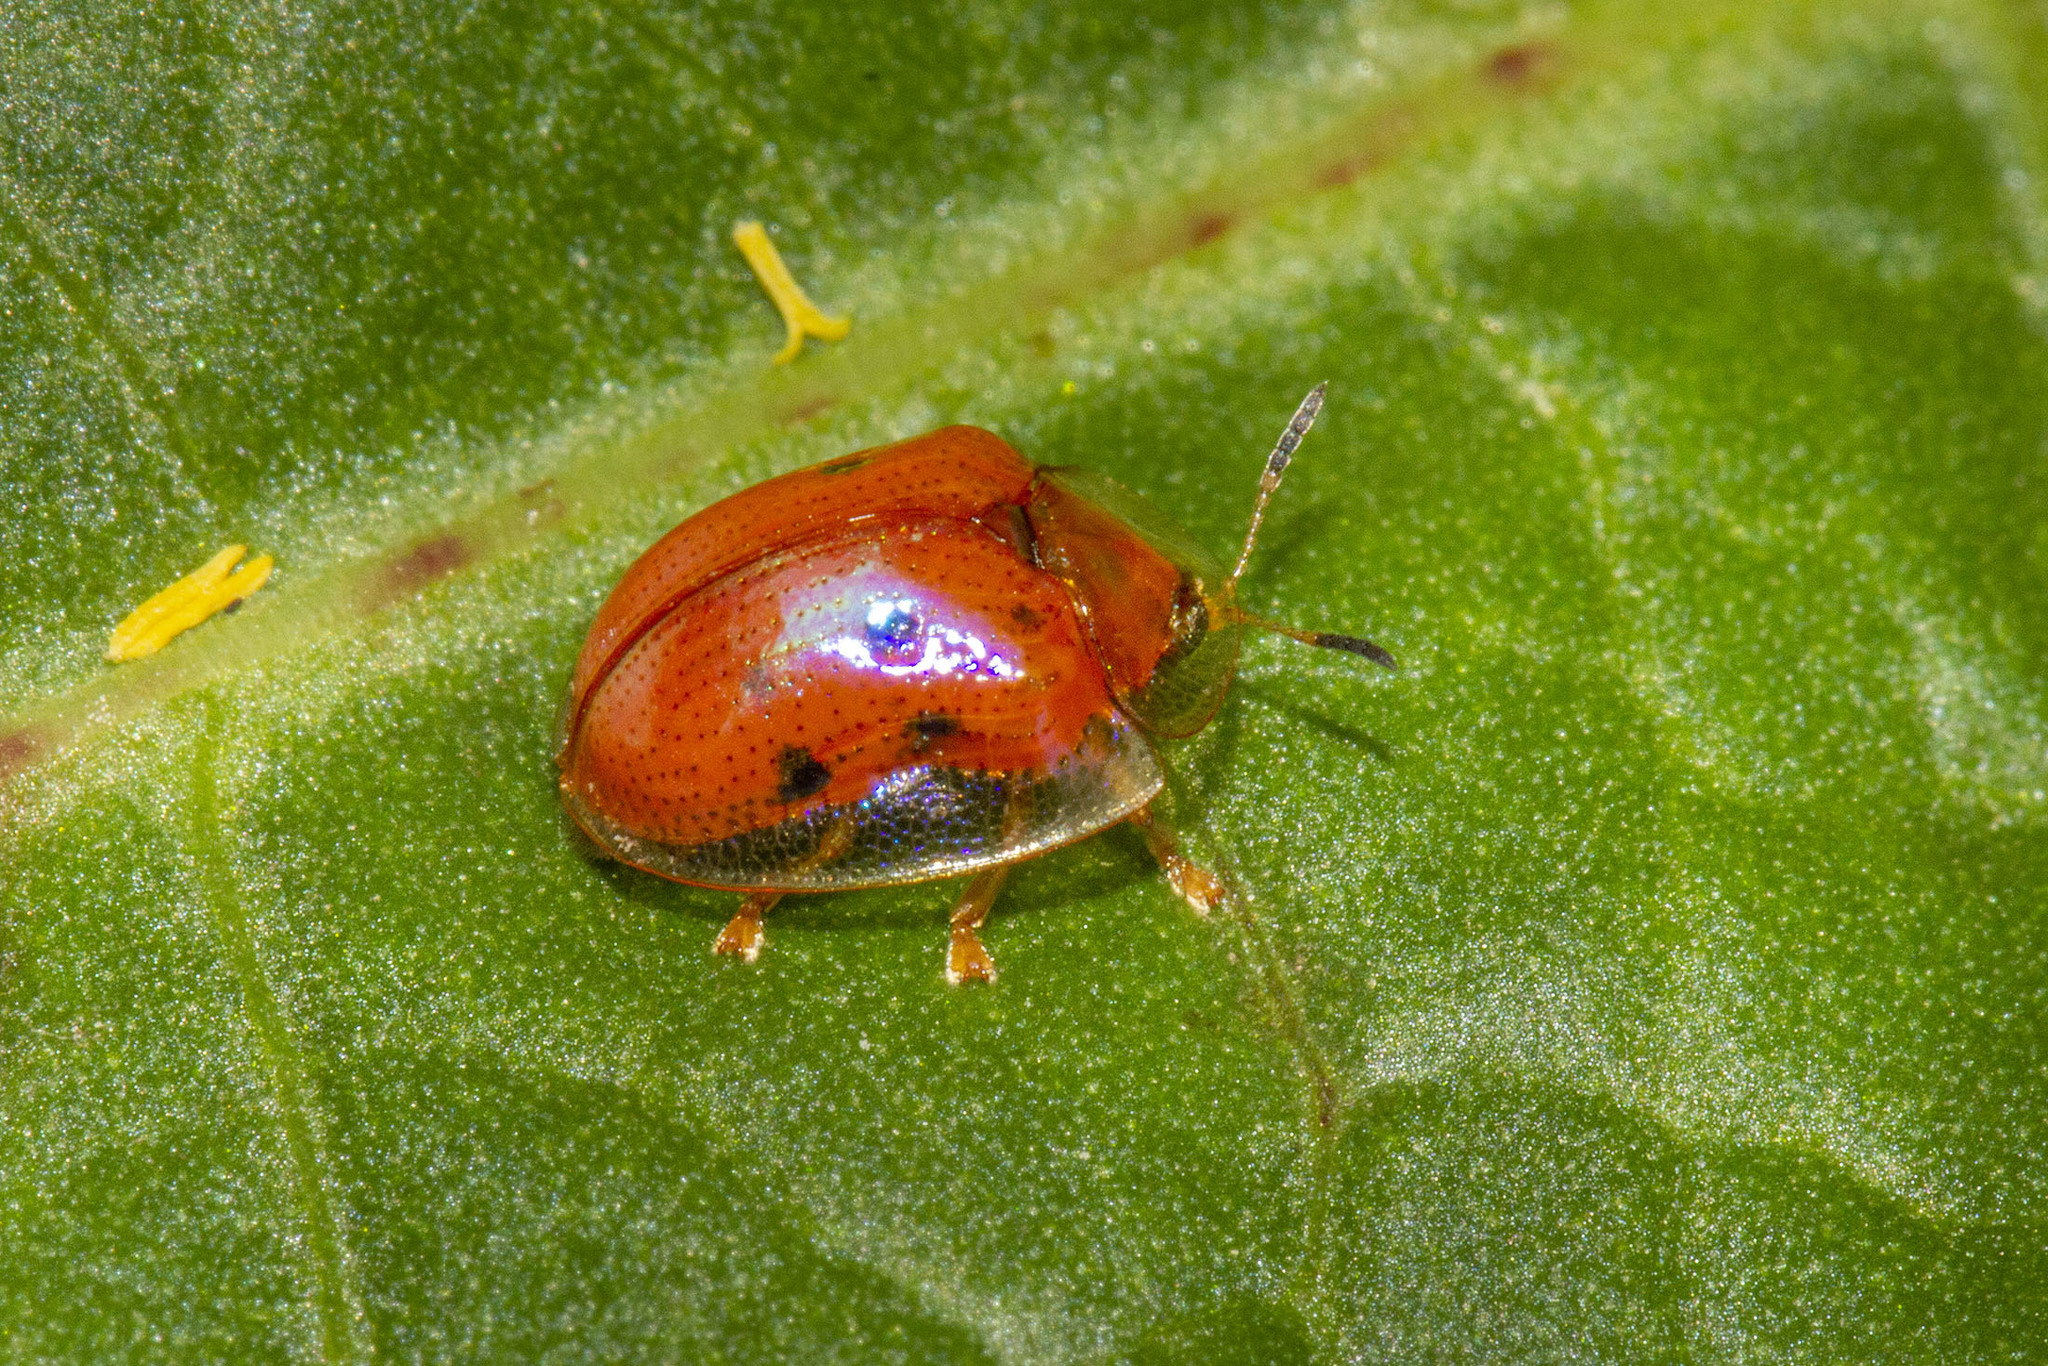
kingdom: Animalia
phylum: Arthropoda
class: Insecta
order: Coleoptera
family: Chrysomelidae
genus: Charidotella
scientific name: Charidotella sexpunctata
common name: Golden tortoise beetle
